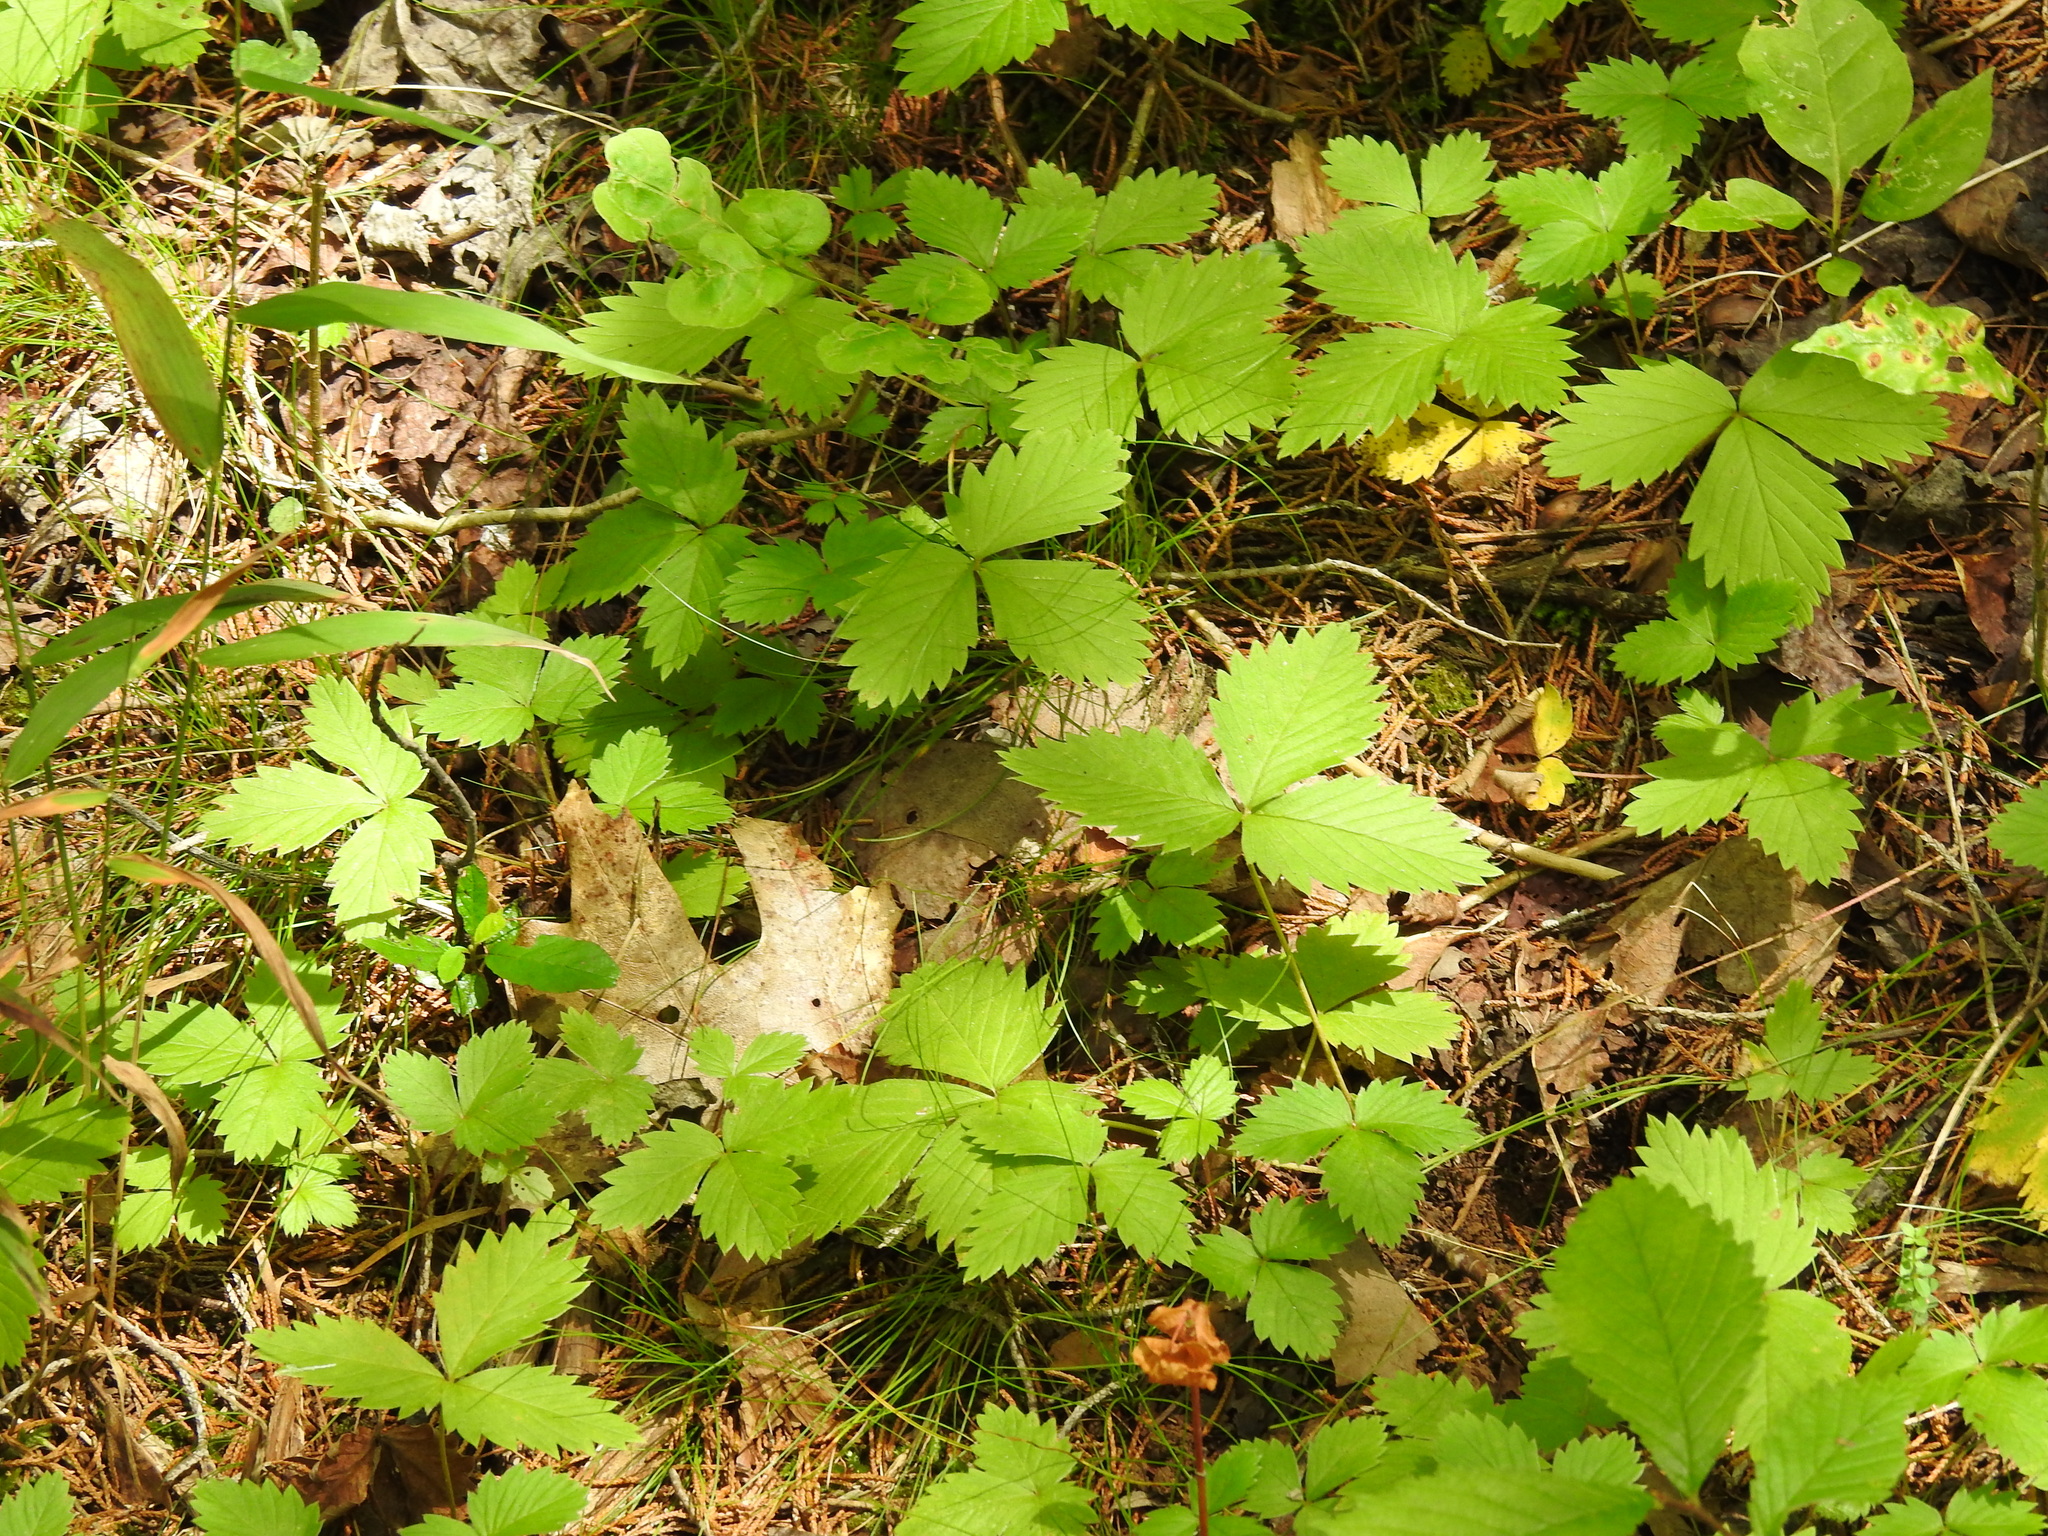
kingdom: Plantae
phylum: Tracheophyta
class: Magnoliopsida
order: Rosales
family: Rosaceae
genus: Fragaria
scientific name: Fragaria vesca
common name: Wild strawberry
